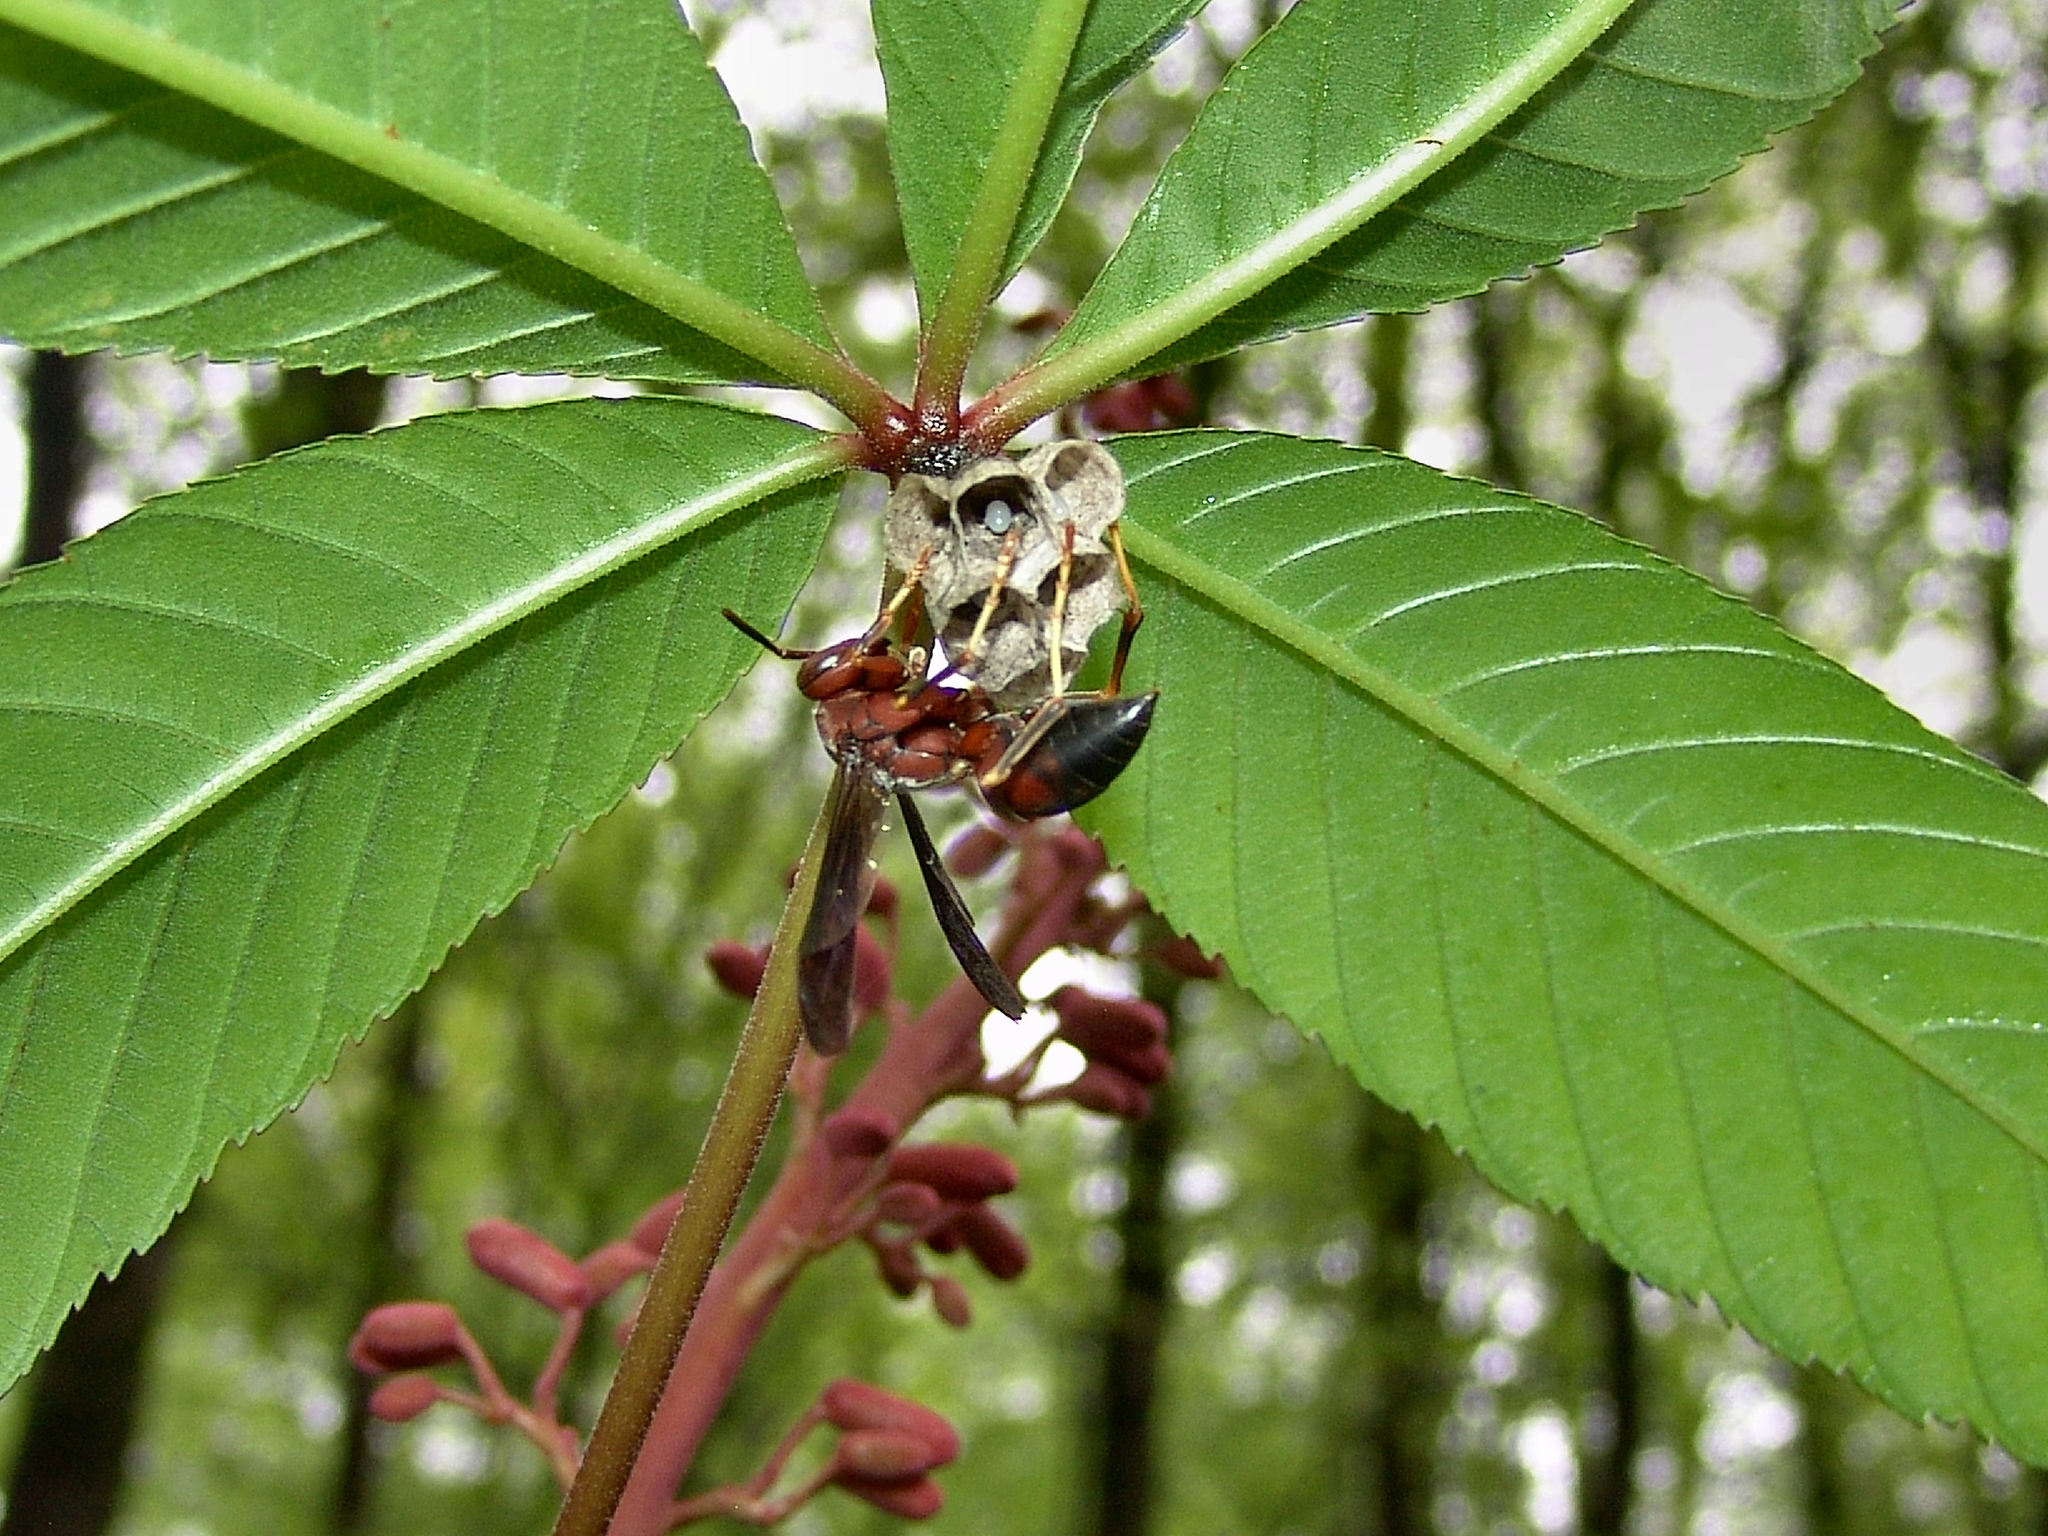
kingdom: Animalia
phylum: Arthropoda
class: Insecta
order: Hymenoptera
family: Vespidae
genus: Fuscopolistes
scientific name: Fuscopolistes
